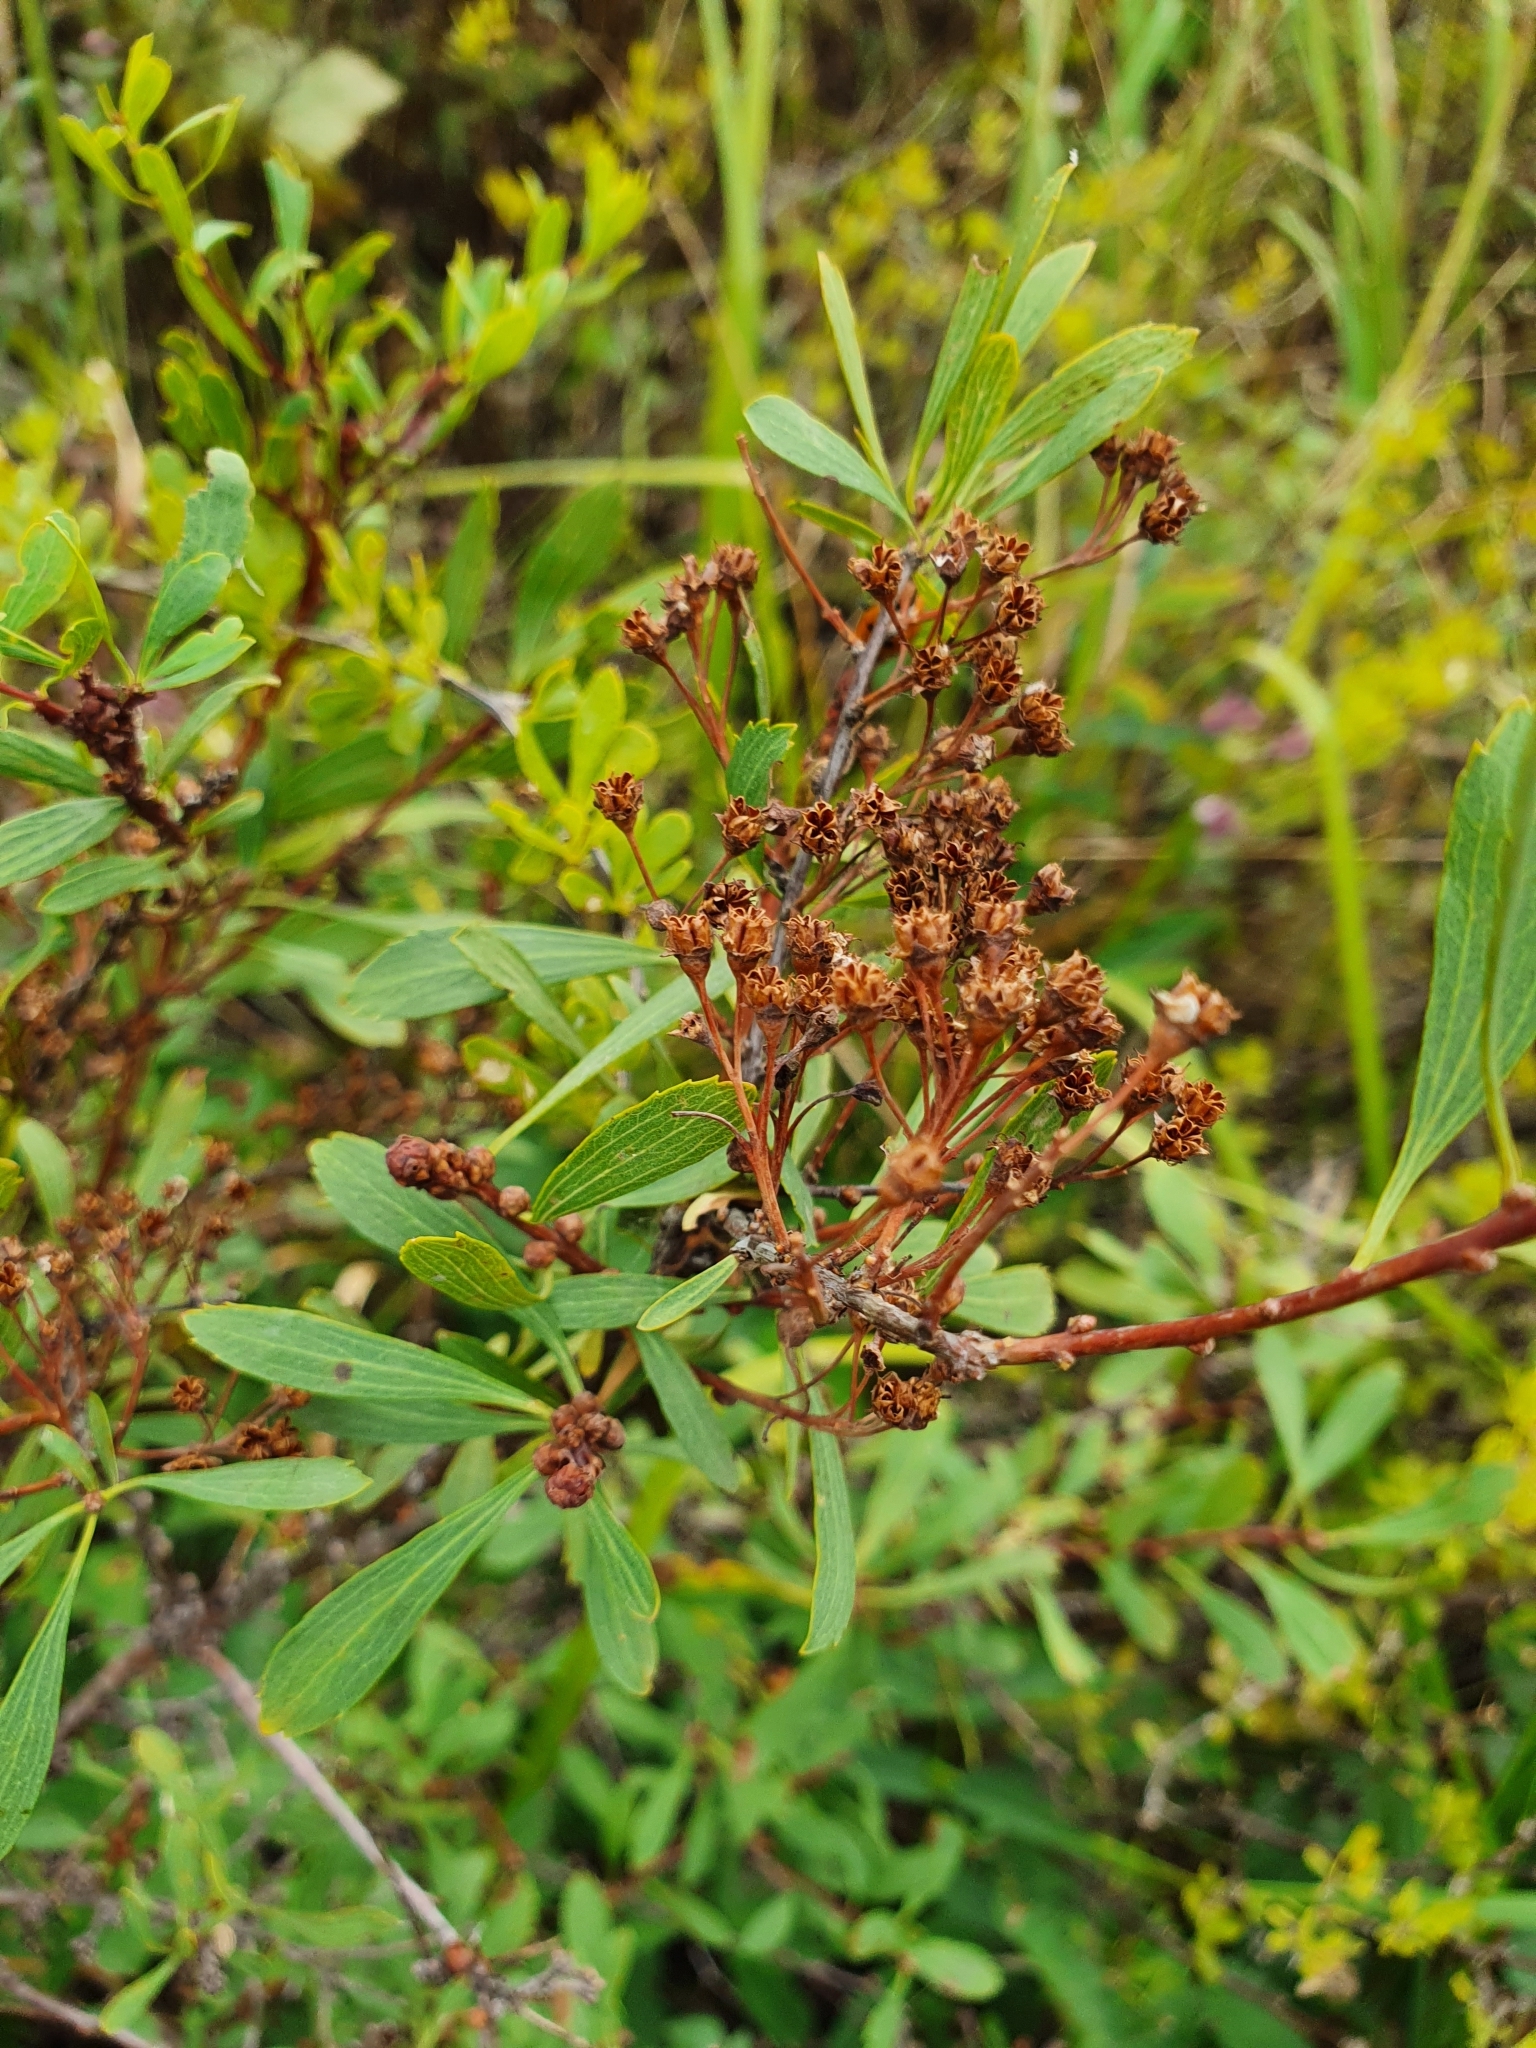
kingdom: Plantae
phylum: Tracheophyta
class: Magnoliopsida
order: Rosales
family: Rosaceae
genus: Spiraea
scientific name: Spiraea crenata
